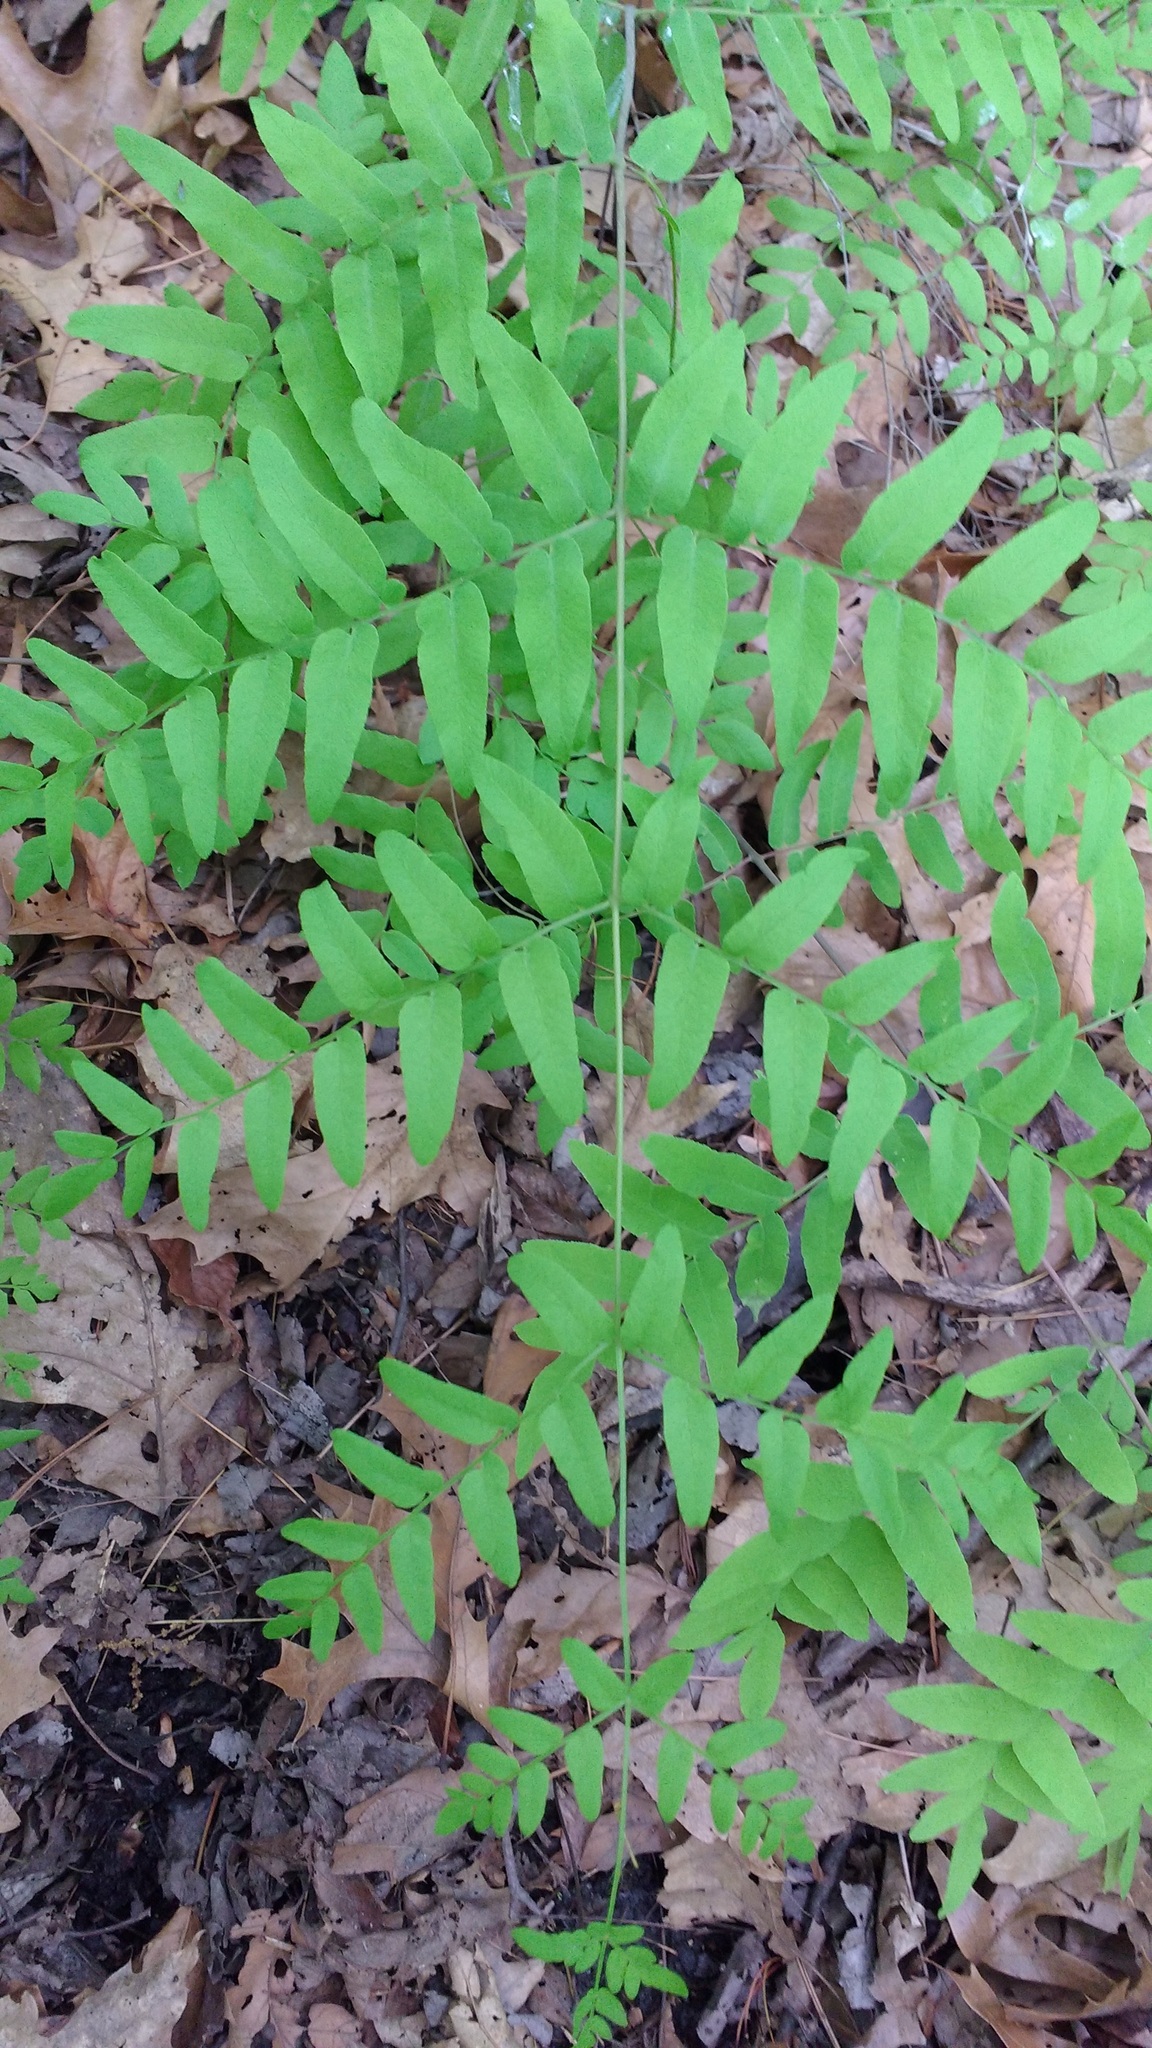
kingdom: Plantae
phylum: Tracheophyta
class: Polypodiopsida
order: Osmundales
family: Osmundaceae
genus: Osmunda
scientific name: Osmunda spectabilis
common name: American royal fern
